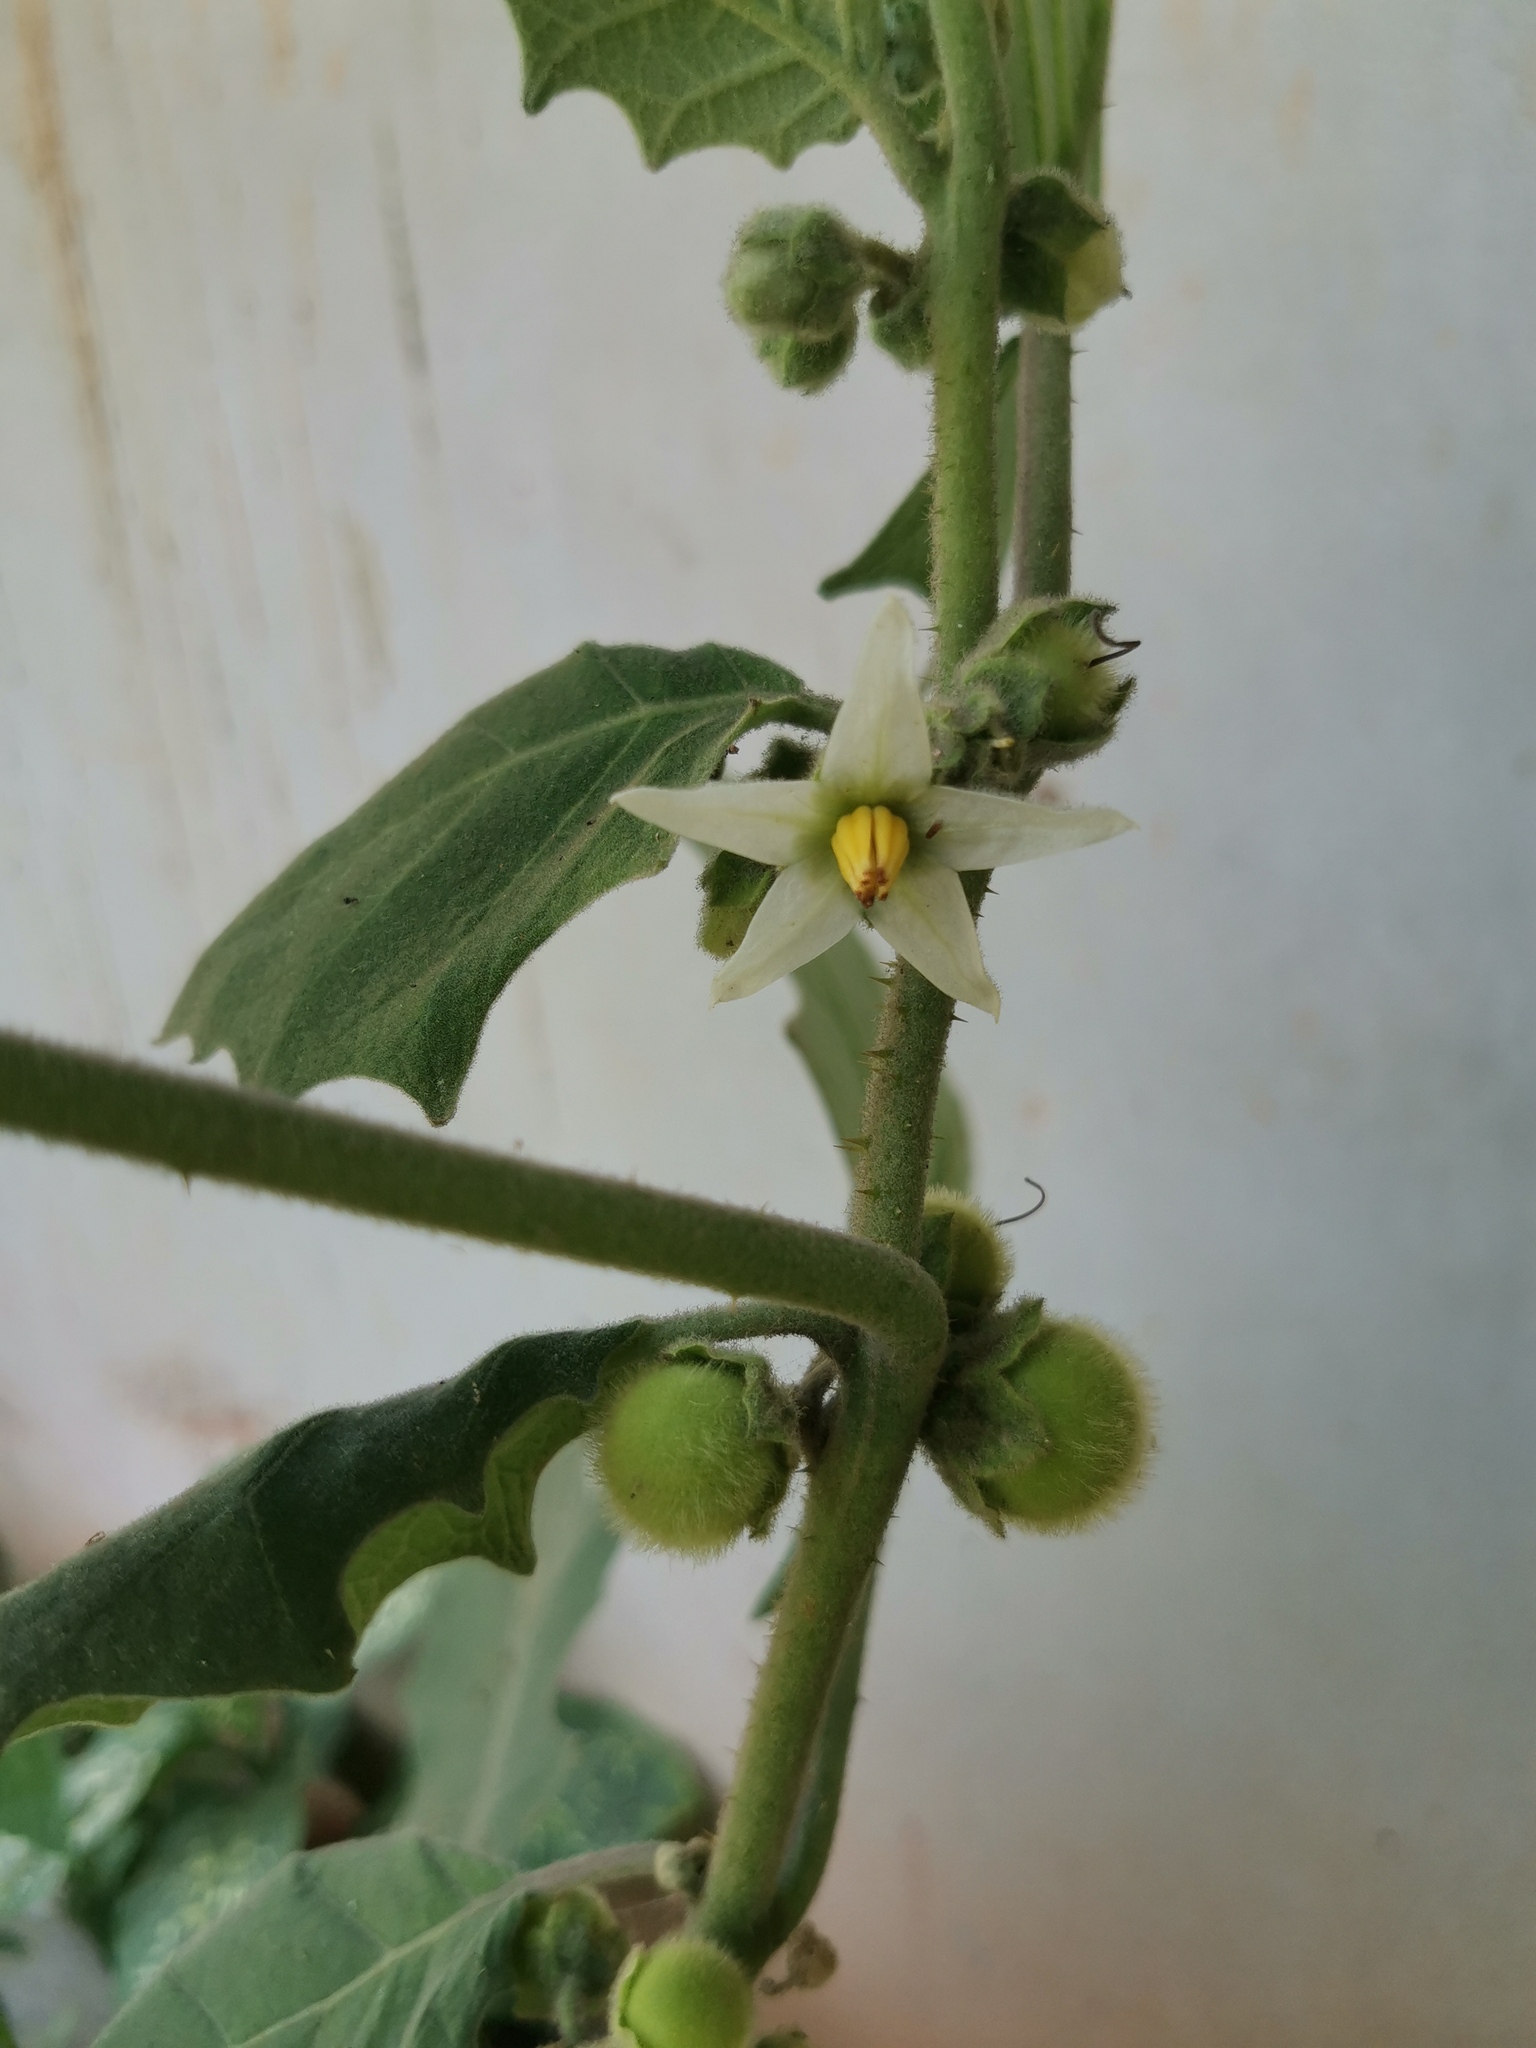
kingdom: Plantae
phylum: Tracheophyta
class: Magnoliopsida
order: Solanales
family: Solanaceae
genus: Solanum
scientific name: Solanum lasiocarpum
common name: Indian nightshade
